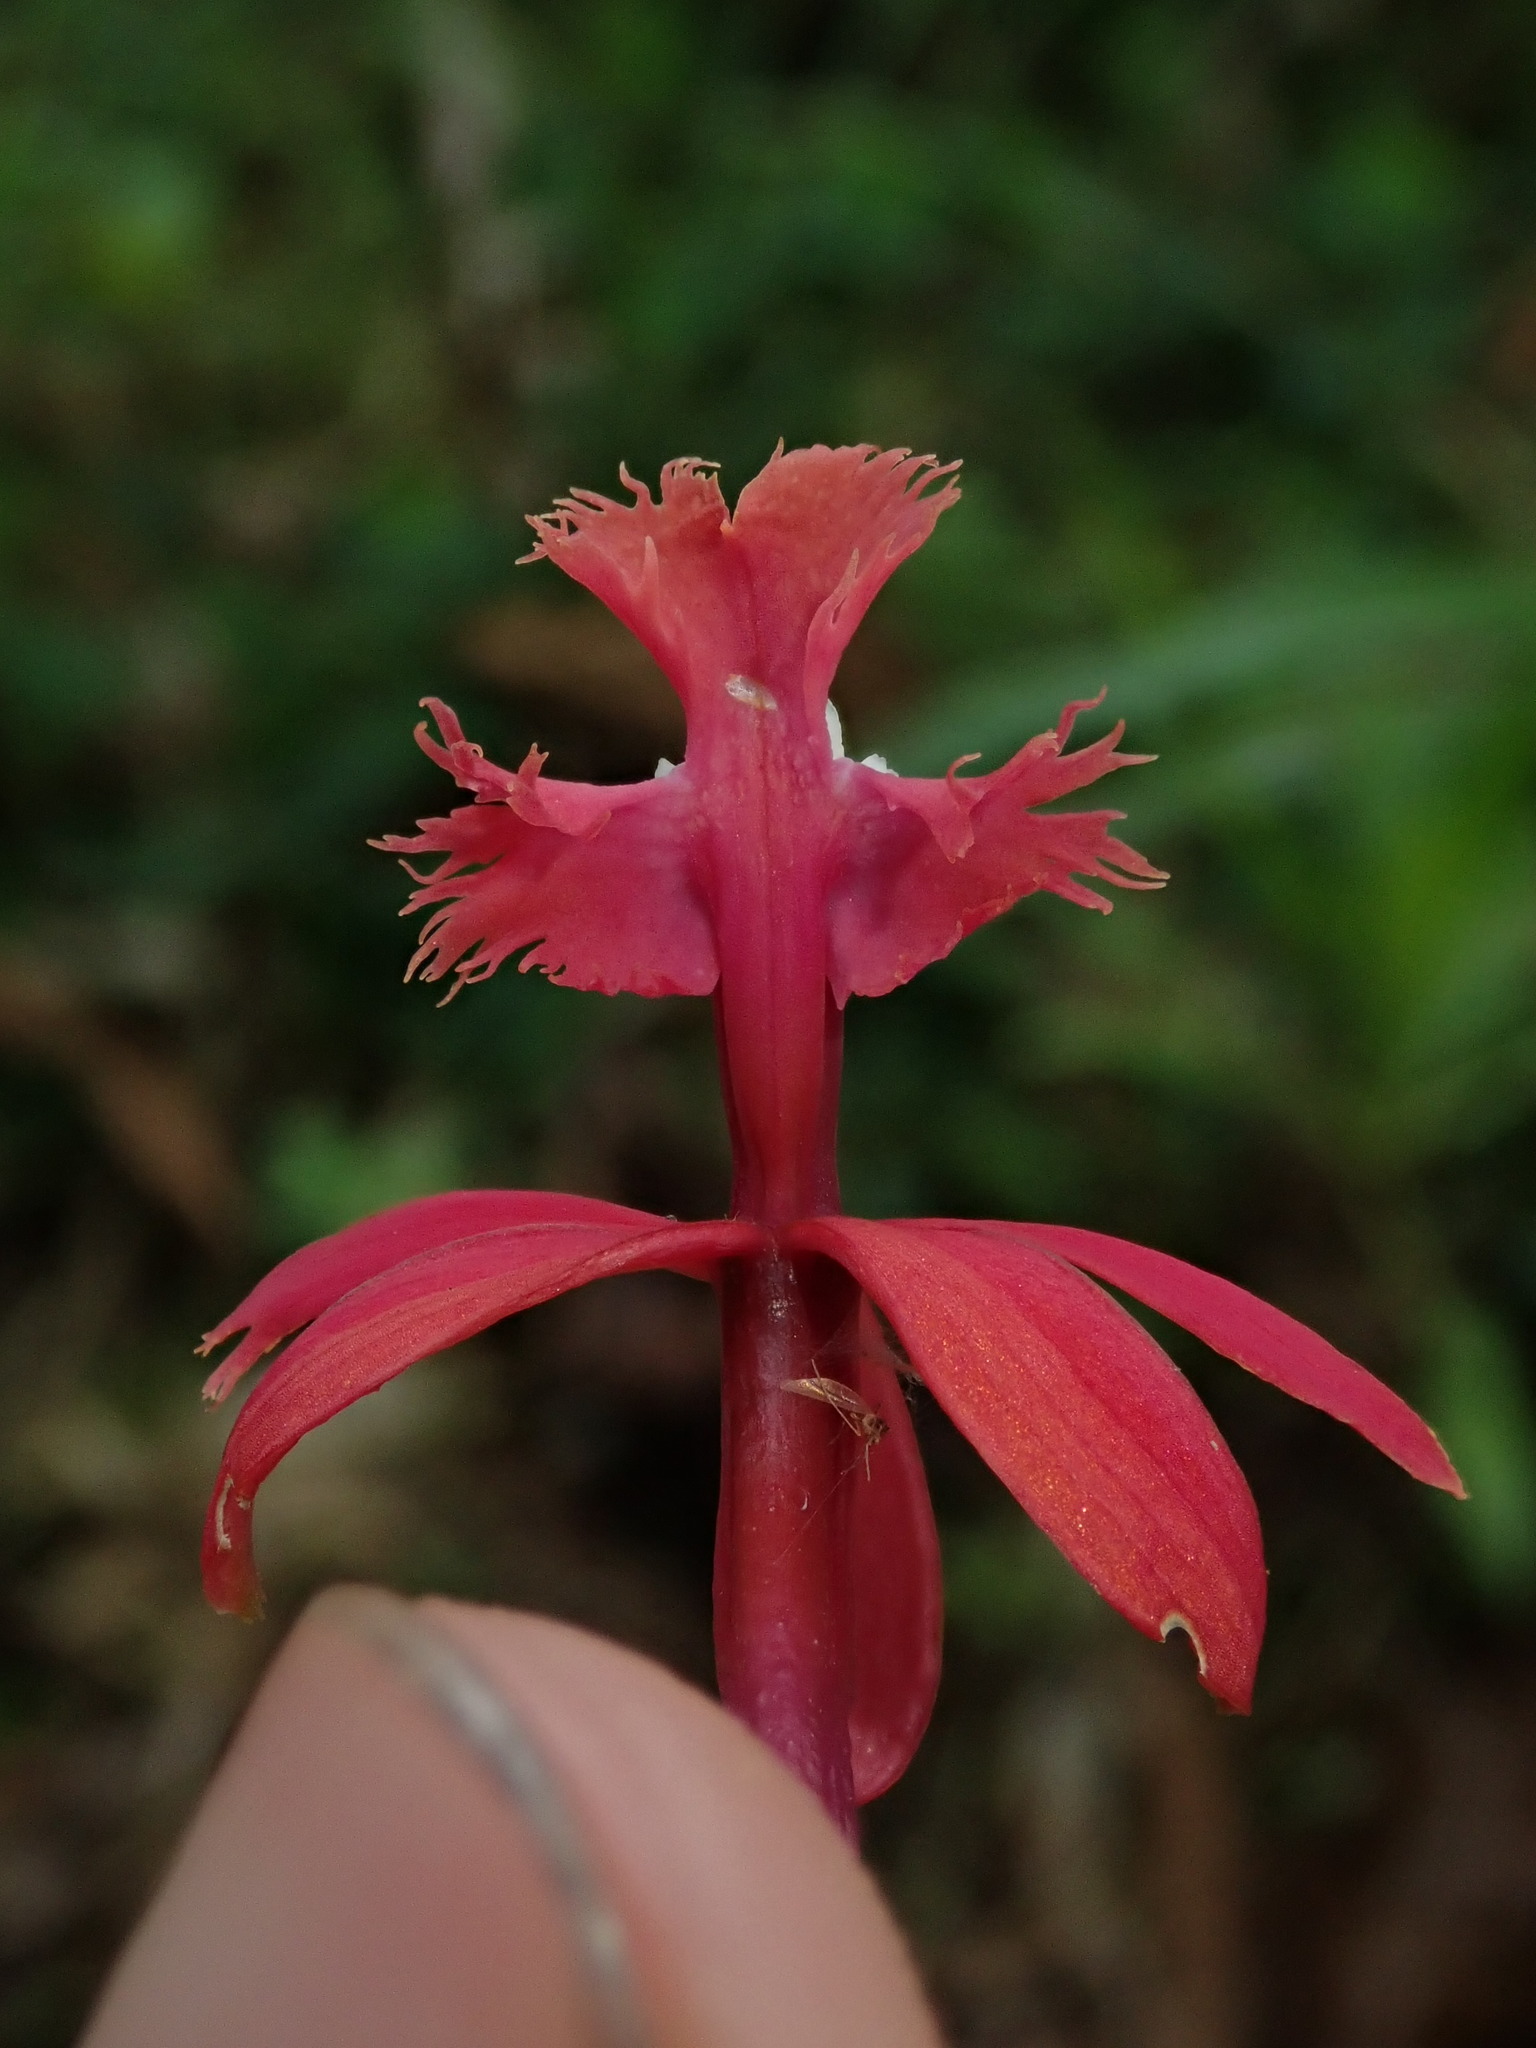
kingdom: Plantae
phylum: Tracheophyta
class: Liliopsida
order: Asparagales
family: Orchidaceae
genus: Epidendrum
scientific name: Epidendrum tulcanense
